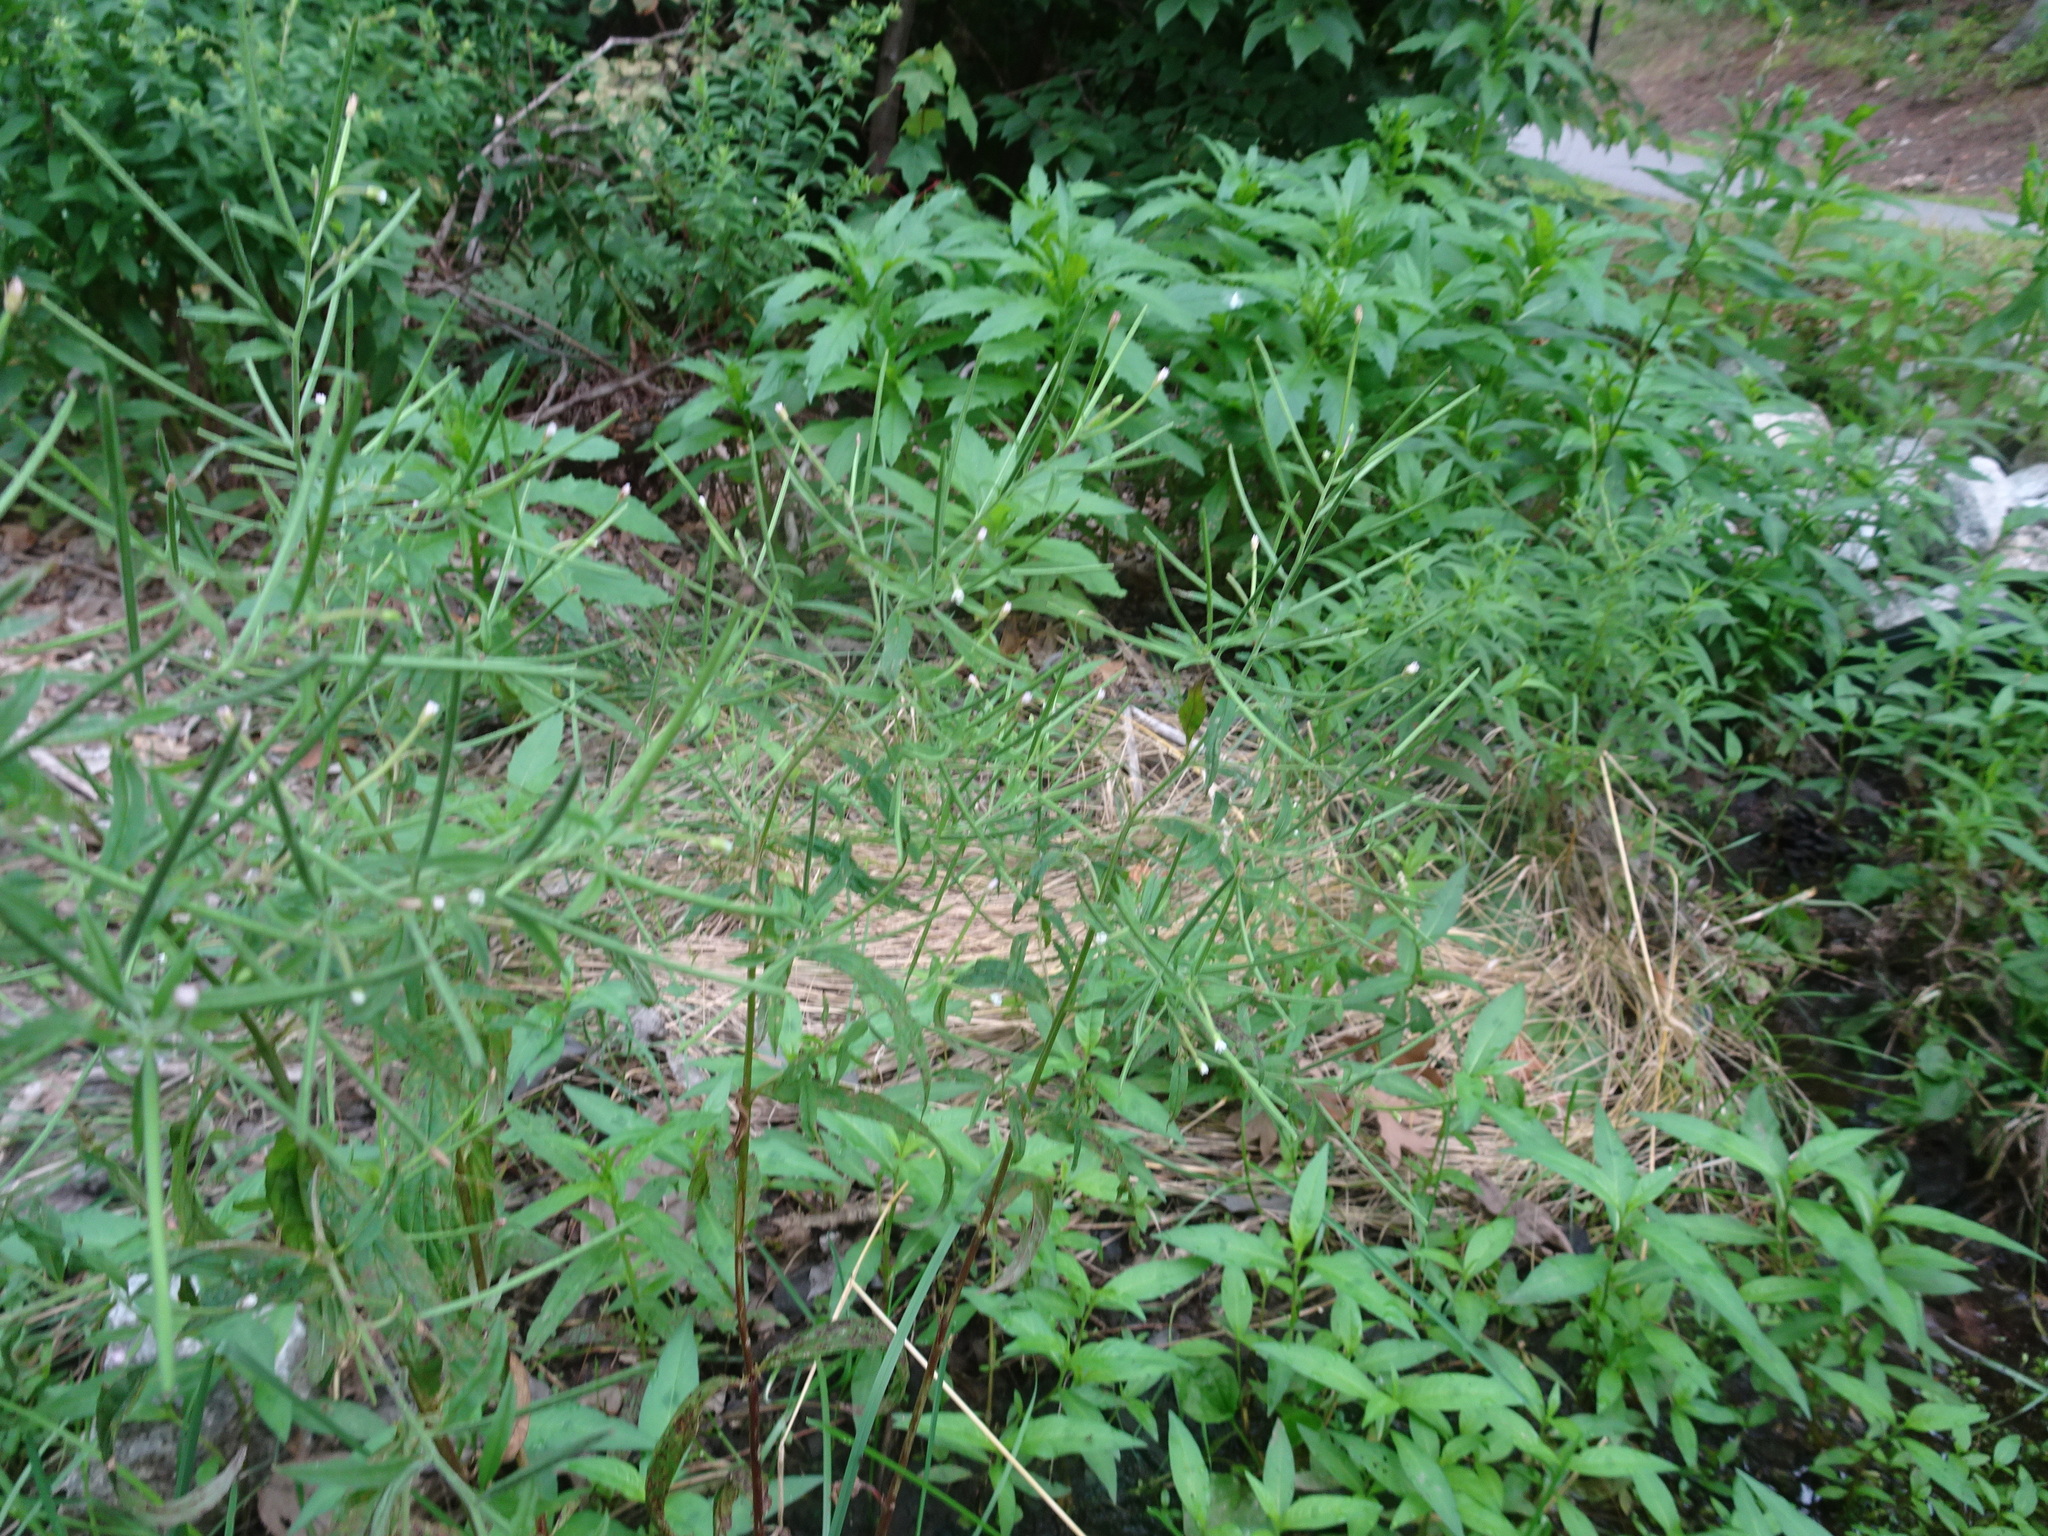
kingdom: Plantae
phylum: Tracheophyta
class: Magnoliopsida
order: Myrtales
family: Onagraceae
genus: Epilobium
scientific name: Epilobium coloratum
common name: Bronze willowherb
